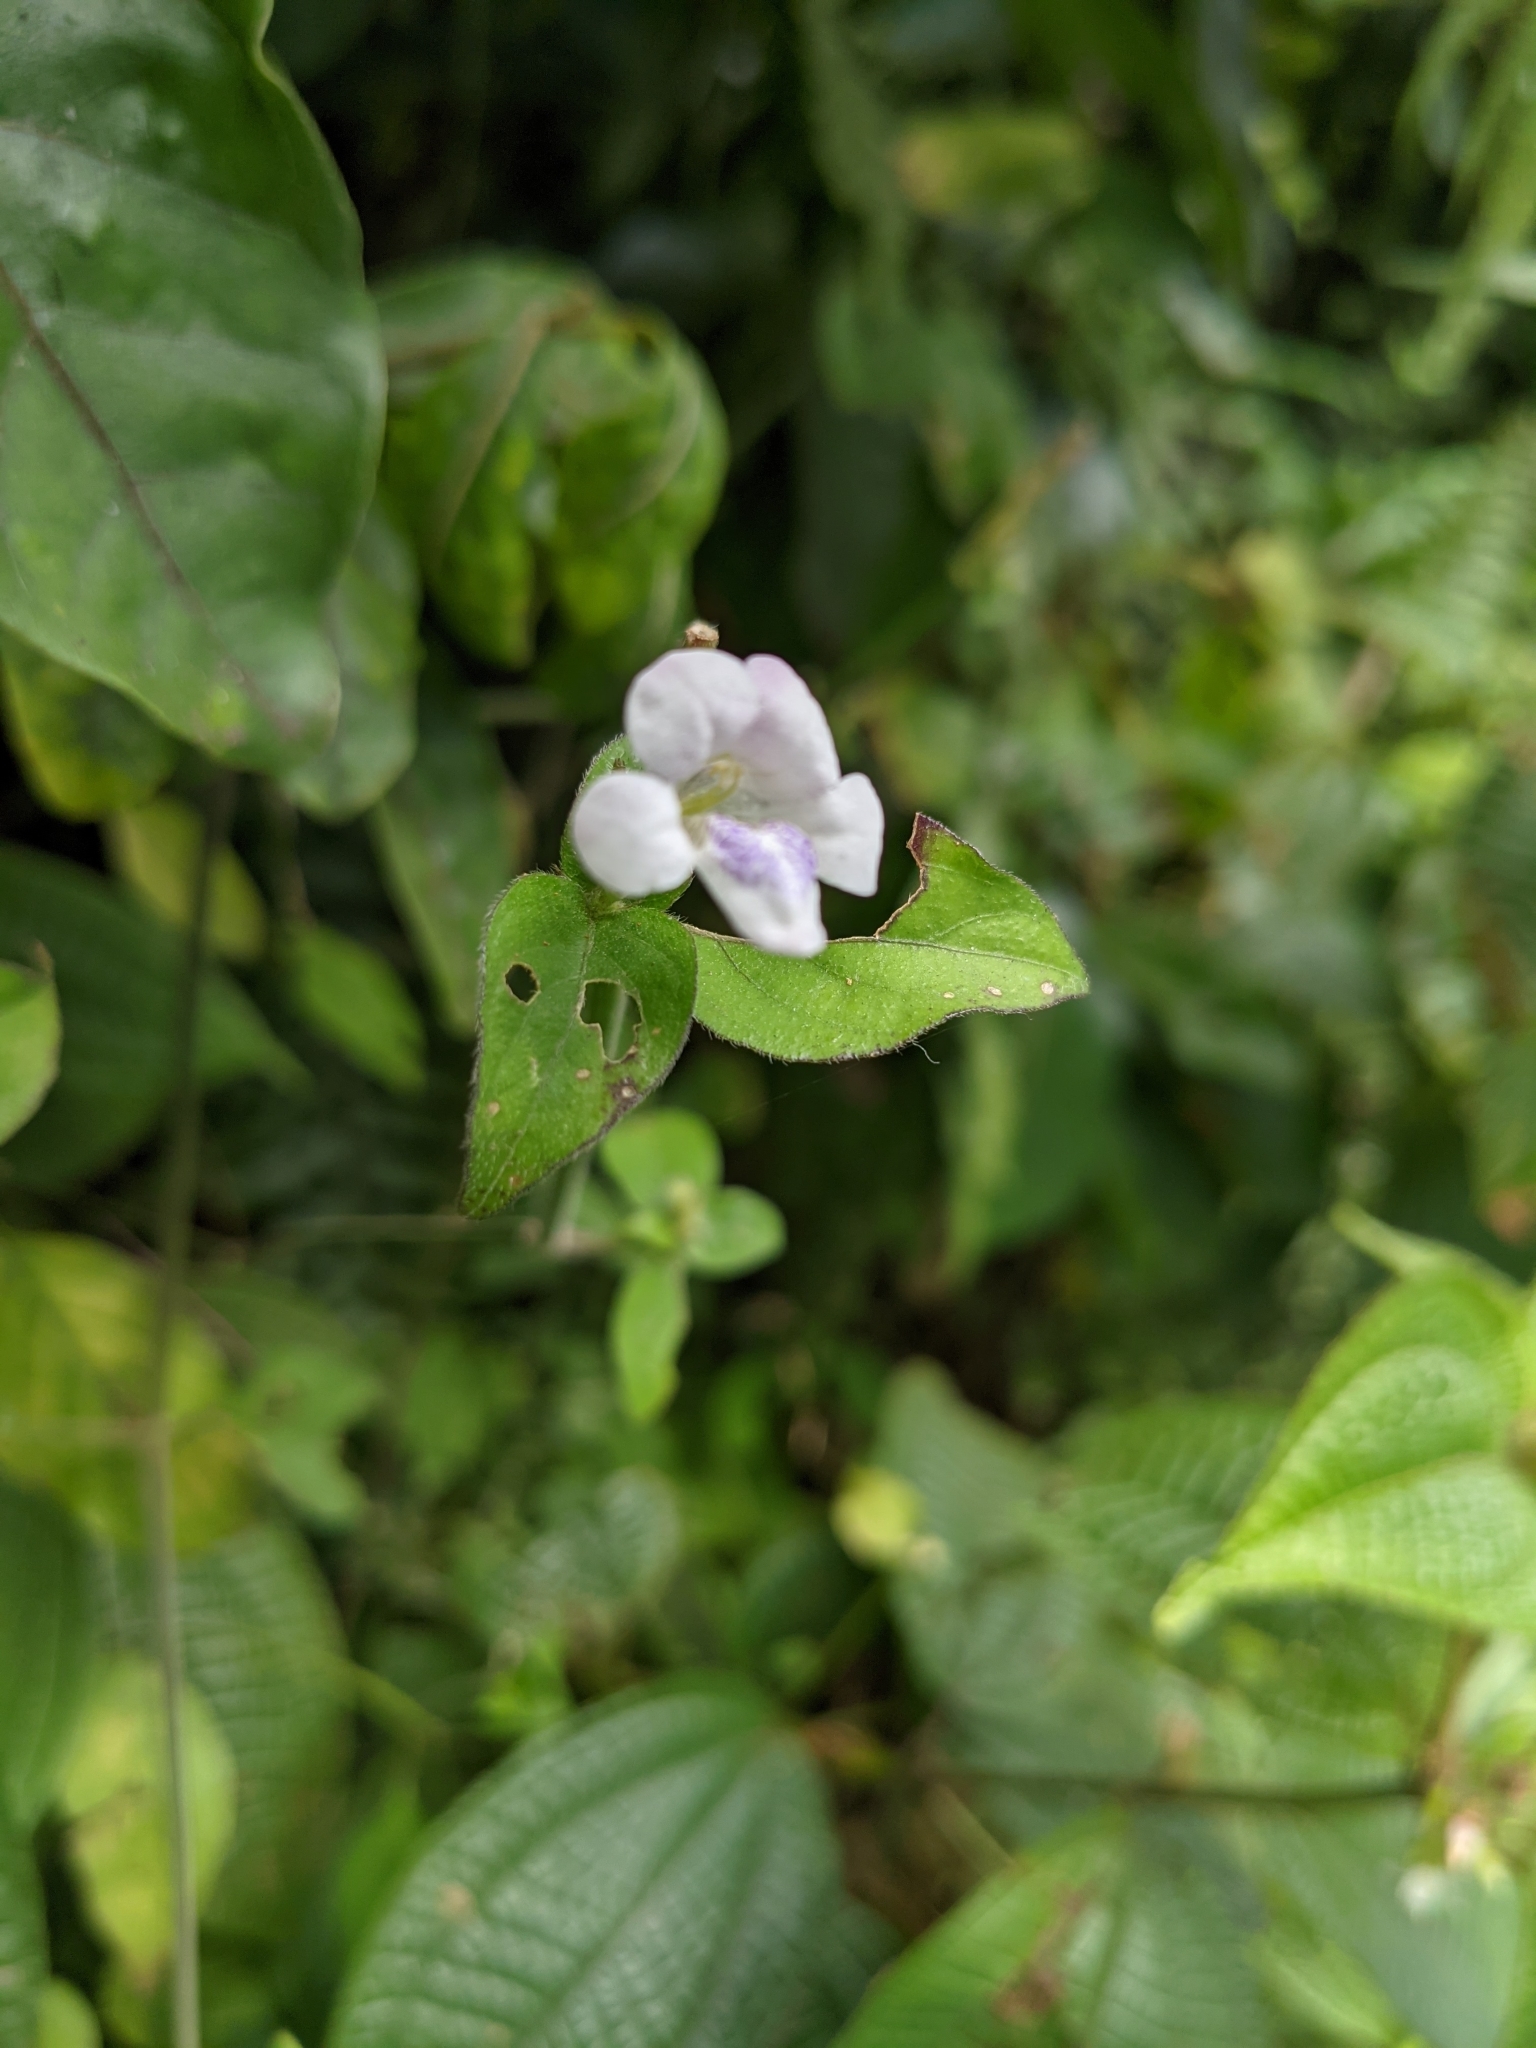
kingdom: Plantae
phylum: Tracheophyta
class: Magnoliopsida
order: Lamiales
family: Acanthaceae
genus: Asystasia
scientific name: Asystasia intrusa
